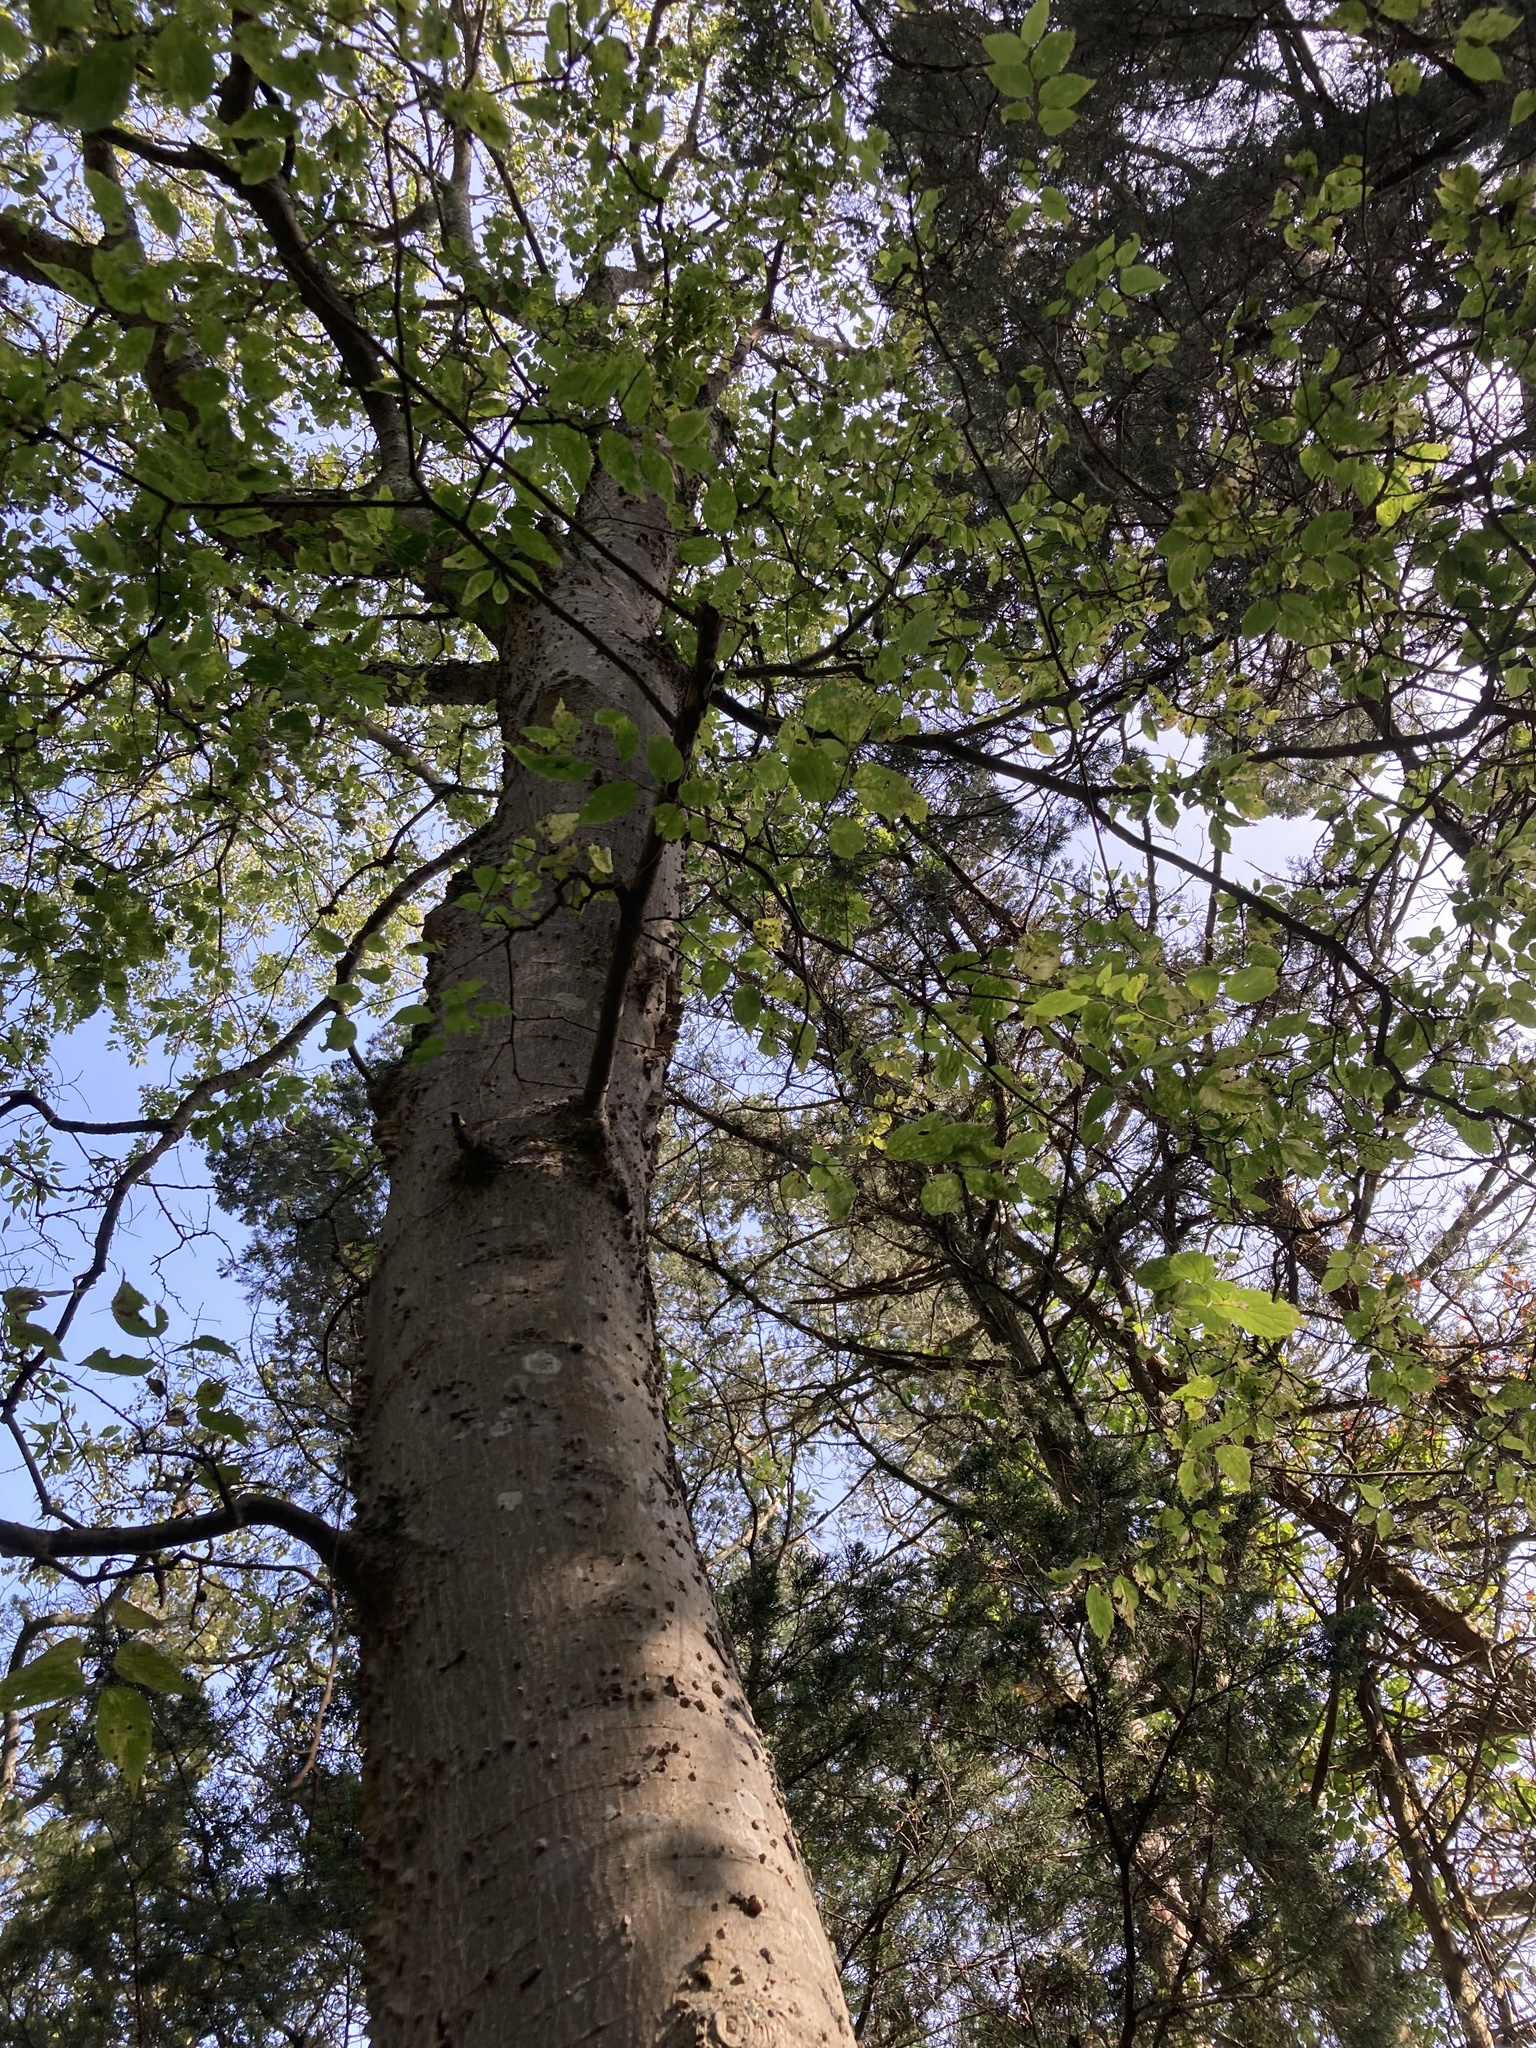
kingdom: Plantae
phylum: Tracheophyta
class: Magnoliopsida
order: Rosales
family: Cannabaceae
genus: Celtis
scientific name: Celtis occidentalis
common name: Common hackberry
